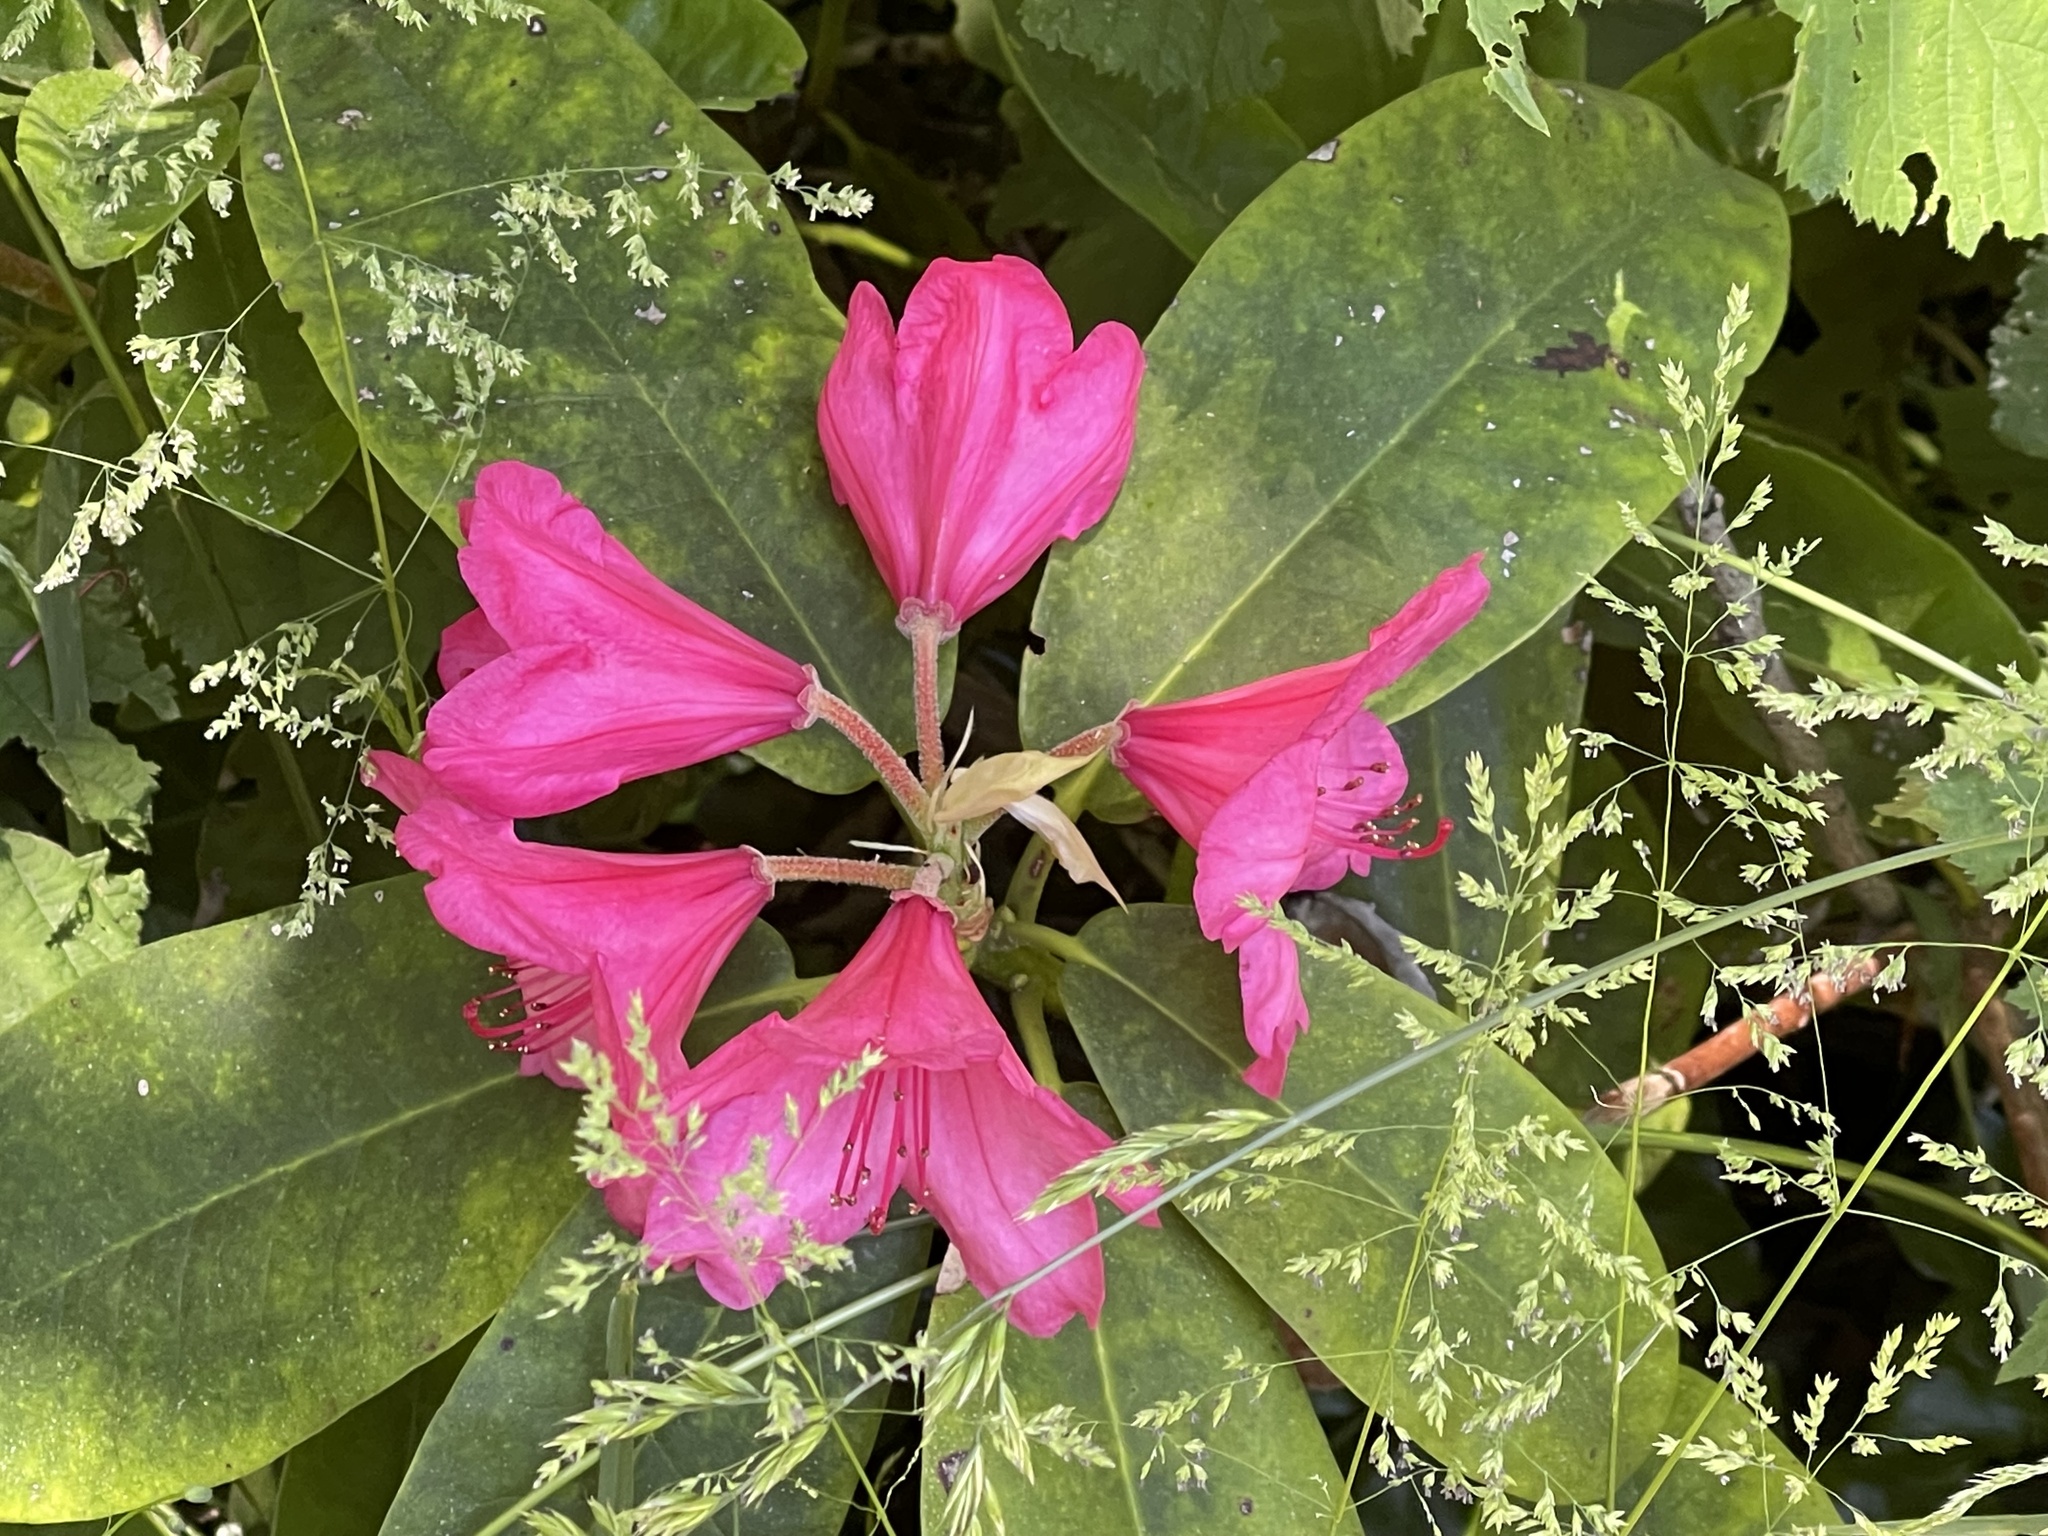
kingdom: Plantae
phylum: Tracheophyta
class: Magnoliopsida
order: Ericales
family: Ericaceae
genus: Rhododendron
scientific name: Rhododendron macrophyllum
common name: California rose bay
